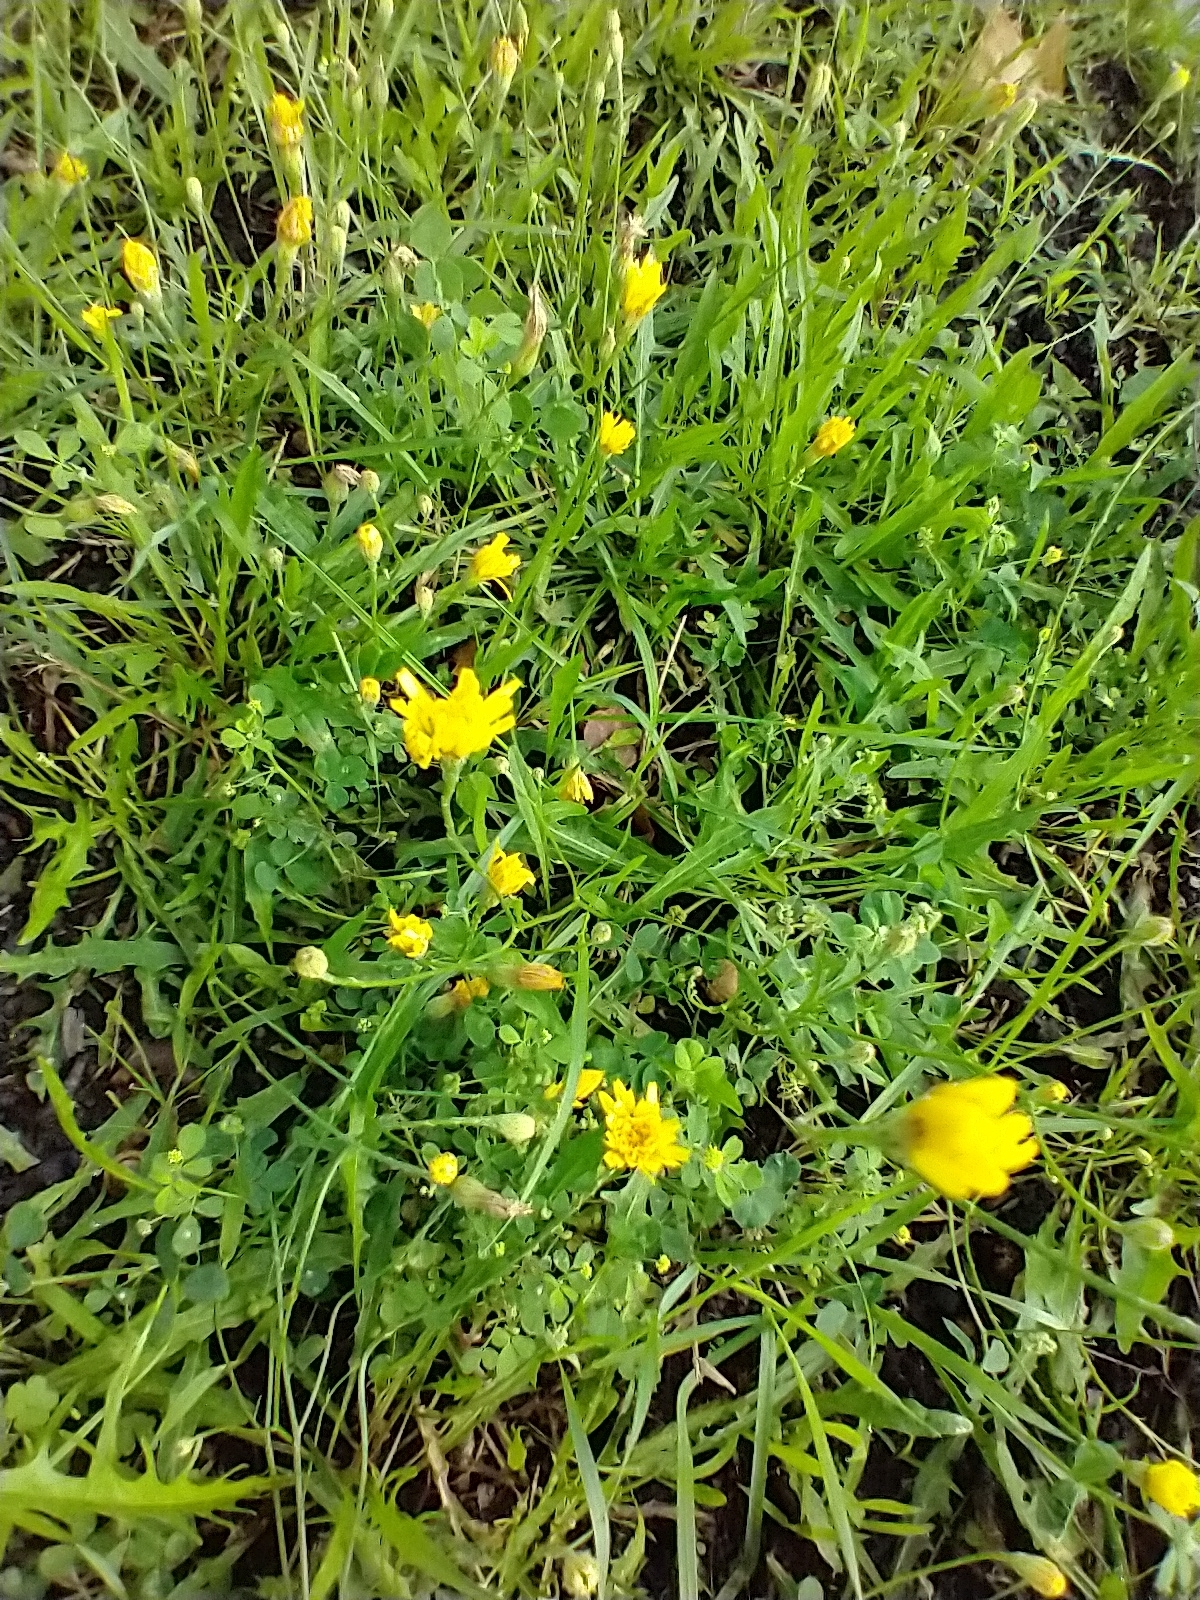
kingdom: Plantae
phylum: Tracheophyta
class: Magnoliopsida
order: Asterales
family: Asteraceae
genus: Scorzoneroides
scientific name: Scorzoneroides autumnalis
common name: Autumn hawkbit
